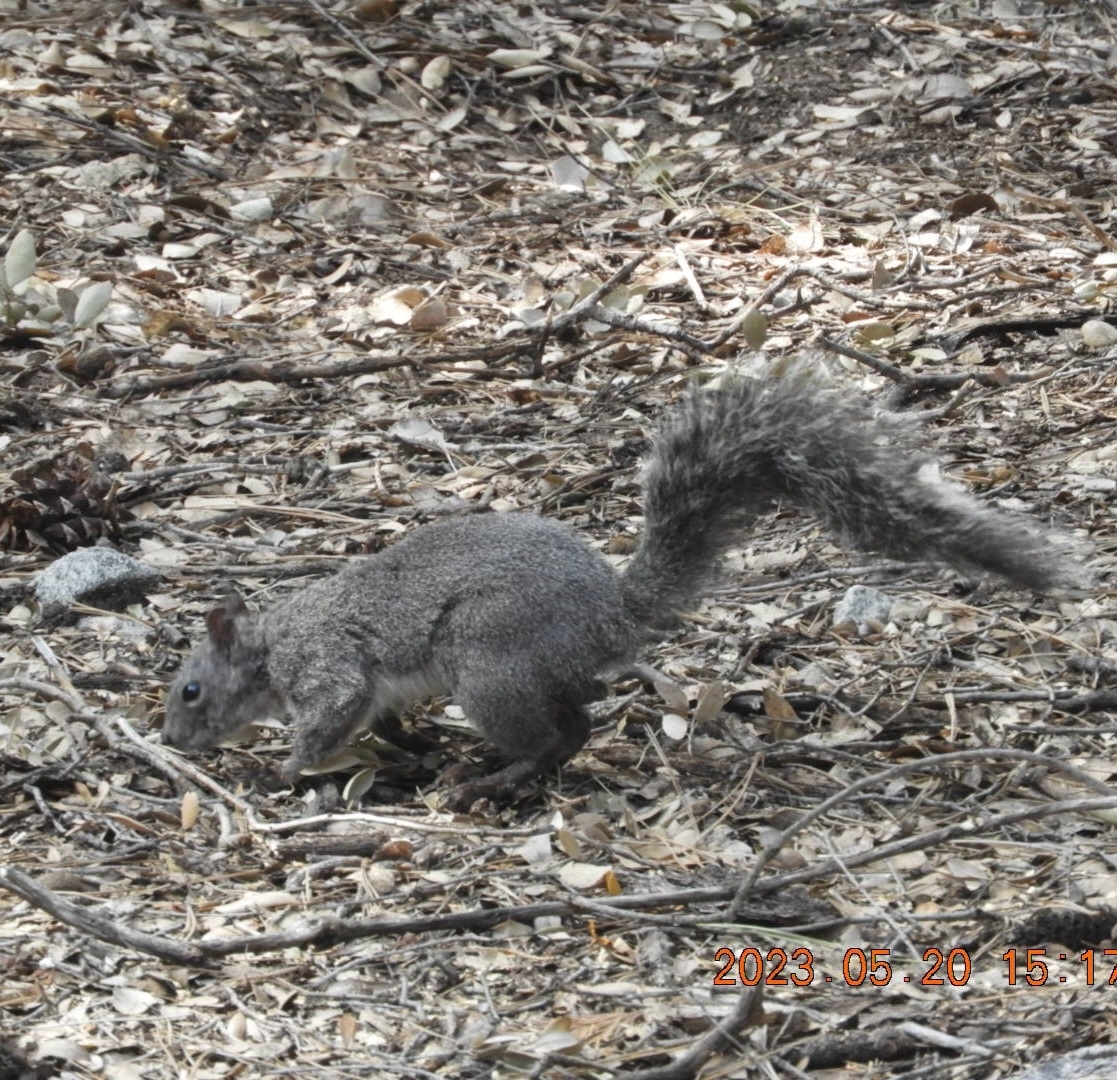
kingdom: Animalia
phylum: Chordata
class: Mammalia
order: Rodentia
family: Sciuridae
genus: Sciurus
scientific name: Sciurus griseus
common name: Western gray squirrel
